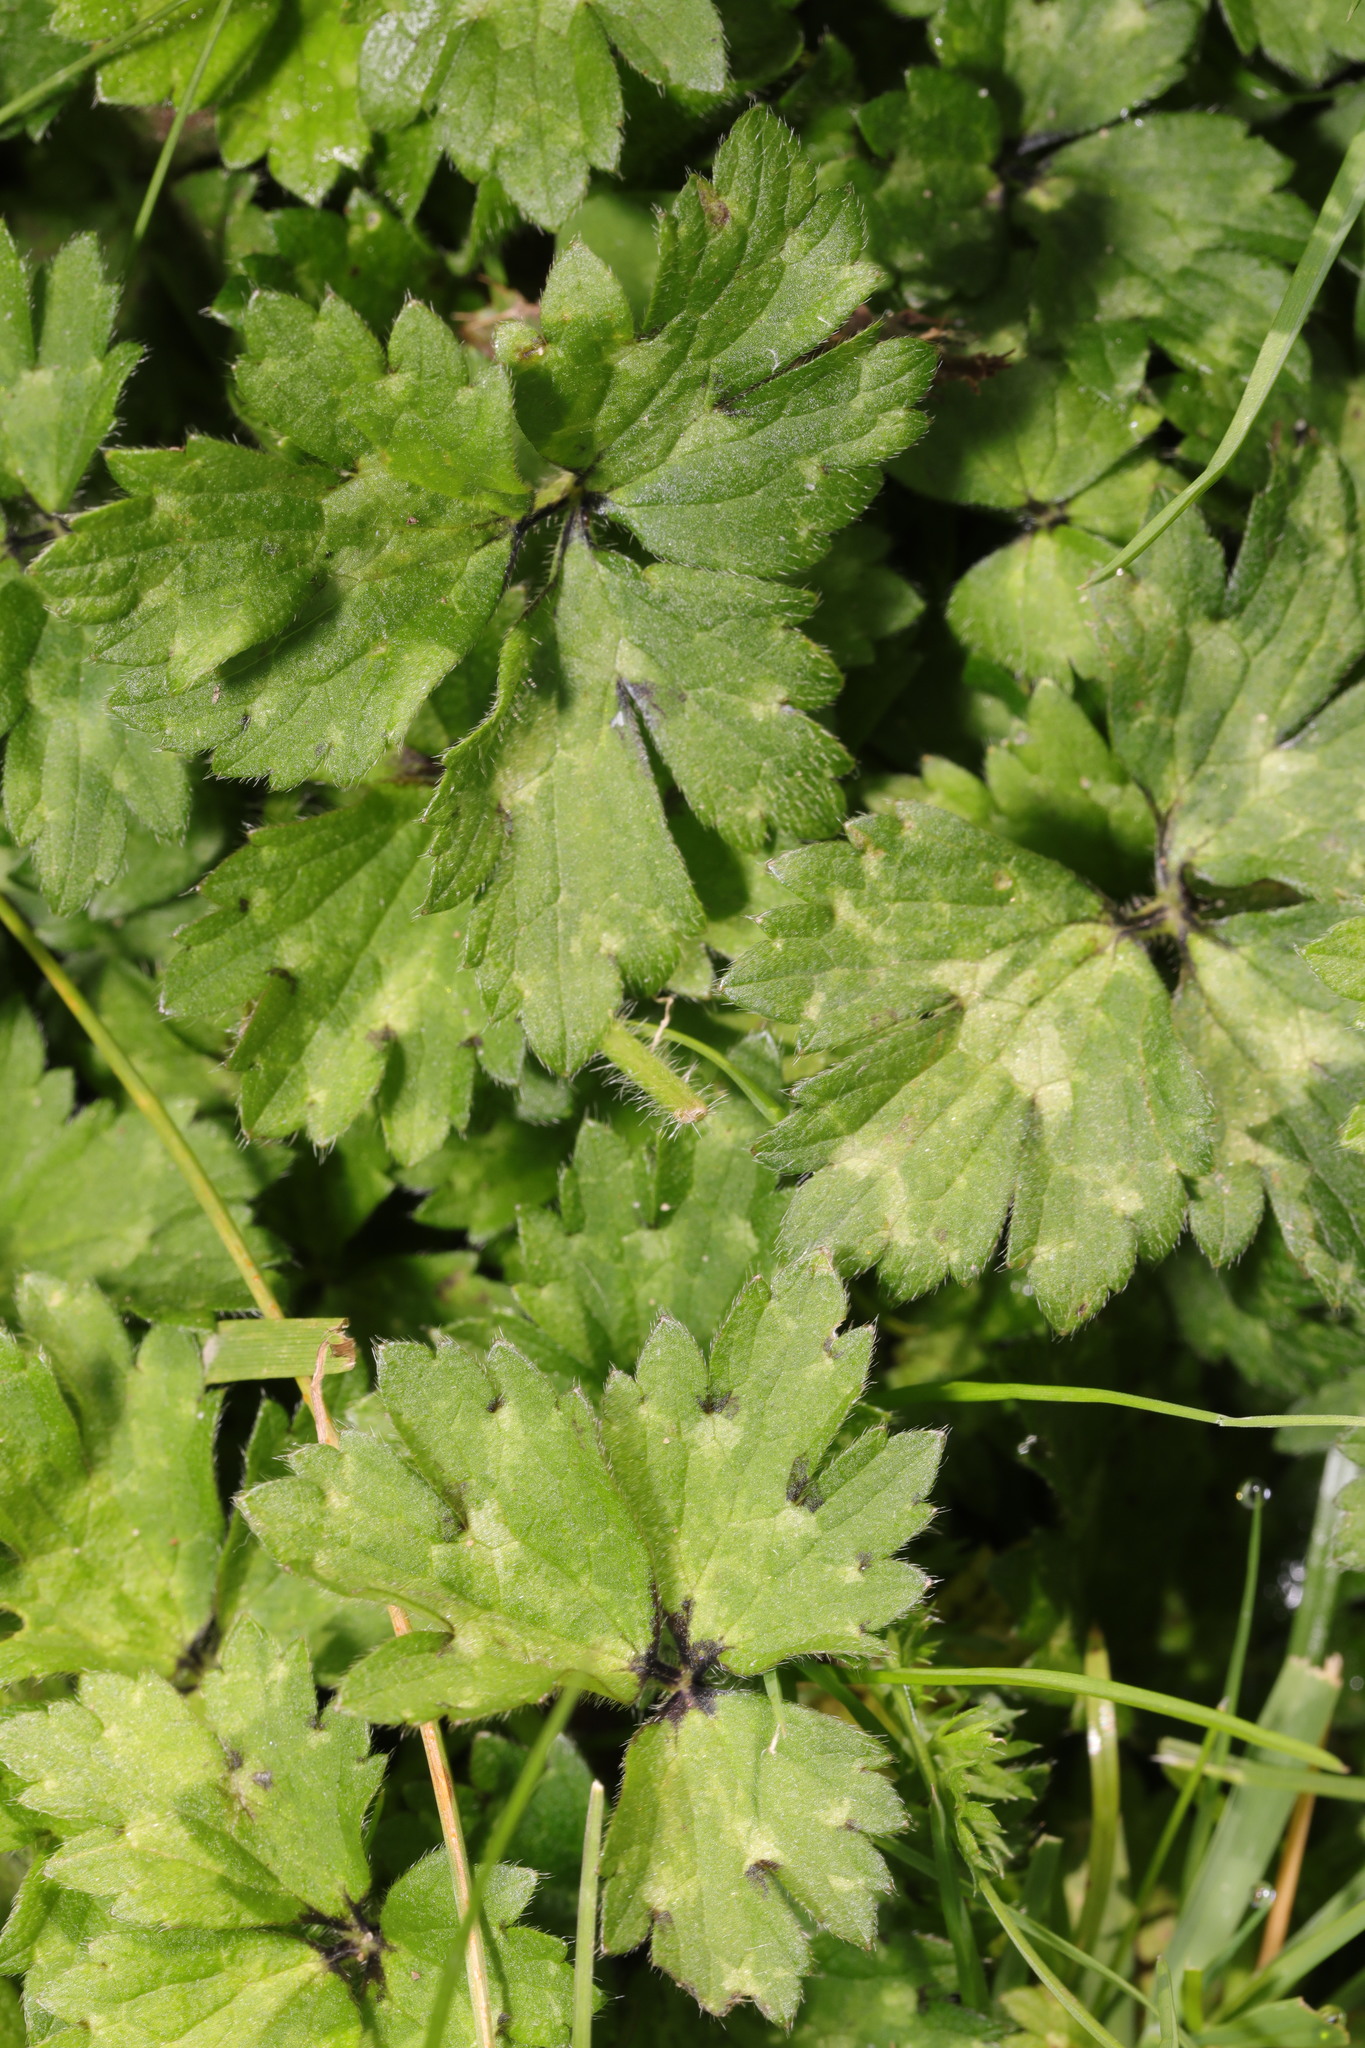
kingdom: Plantae
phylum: Tracheophyta
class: Magnoliopsida
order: Ranunculales
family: Ranunculaceae
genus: Ranunculus
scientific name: Ranunculus repens
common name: Creeping buttercup
